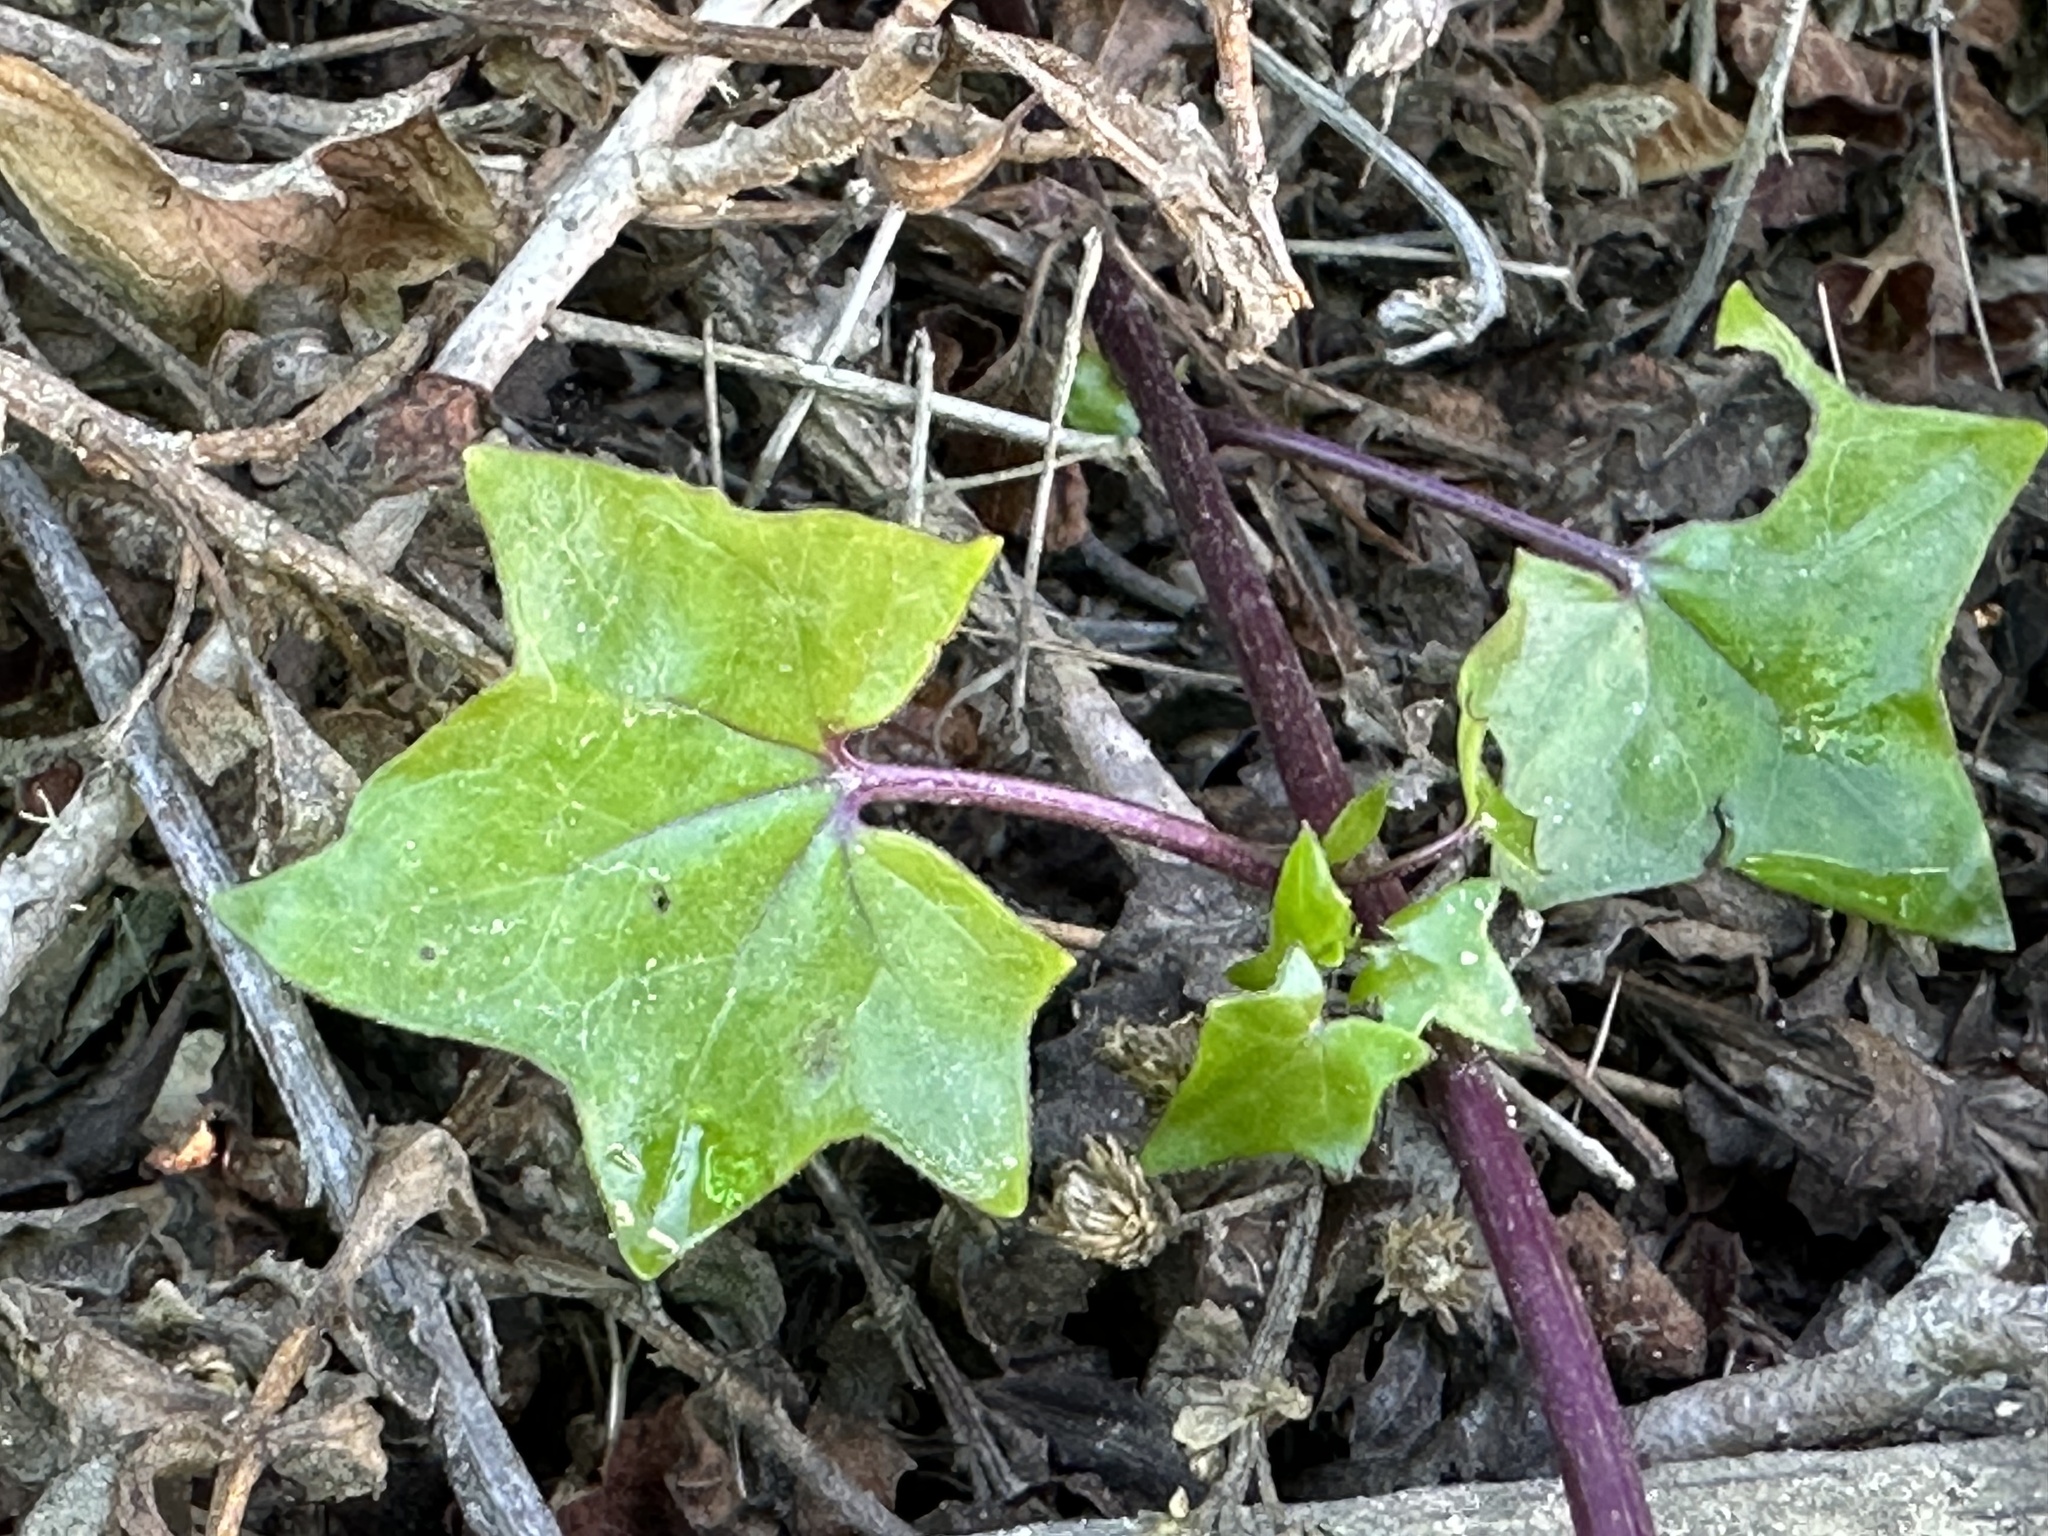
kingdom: Plantae
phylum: Tracheophyta
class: Magnoliopsida
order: Asterales
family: Asteraceae
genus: Delairea
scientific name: Delairea odorata
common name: Cape-ivy
